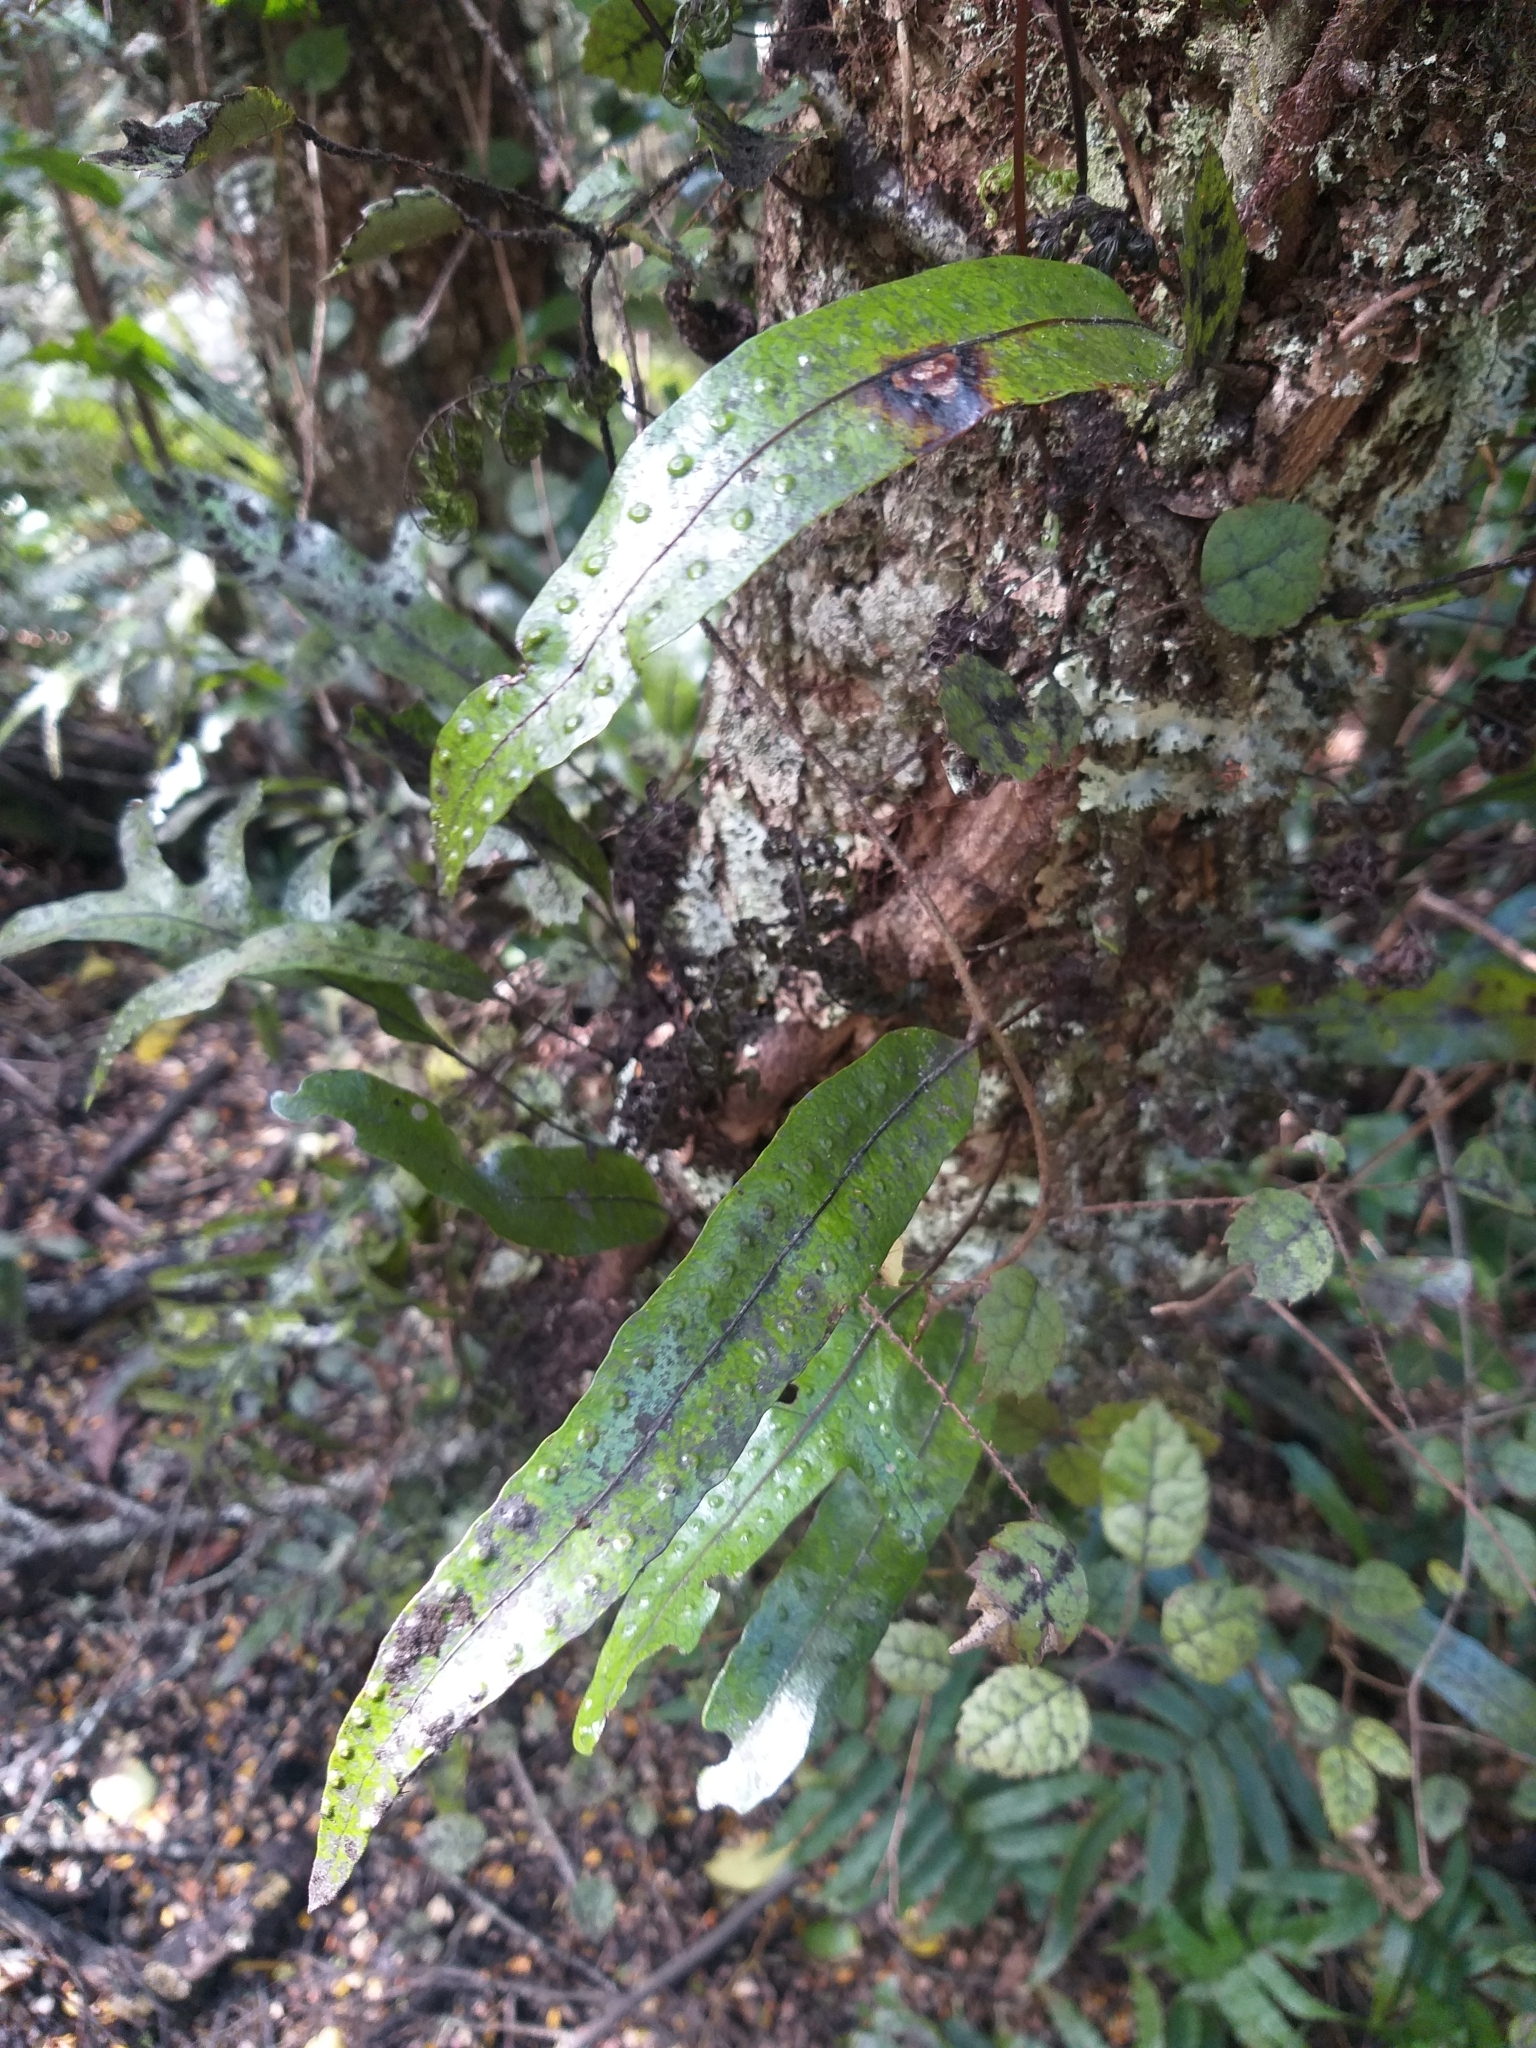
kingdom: Plantae
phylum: Tracheophyta
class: Polypodiopsida
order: Polypodiales
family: Polypodiaceae
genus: Lecanopteris
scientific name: Lecanopteris pustulata
